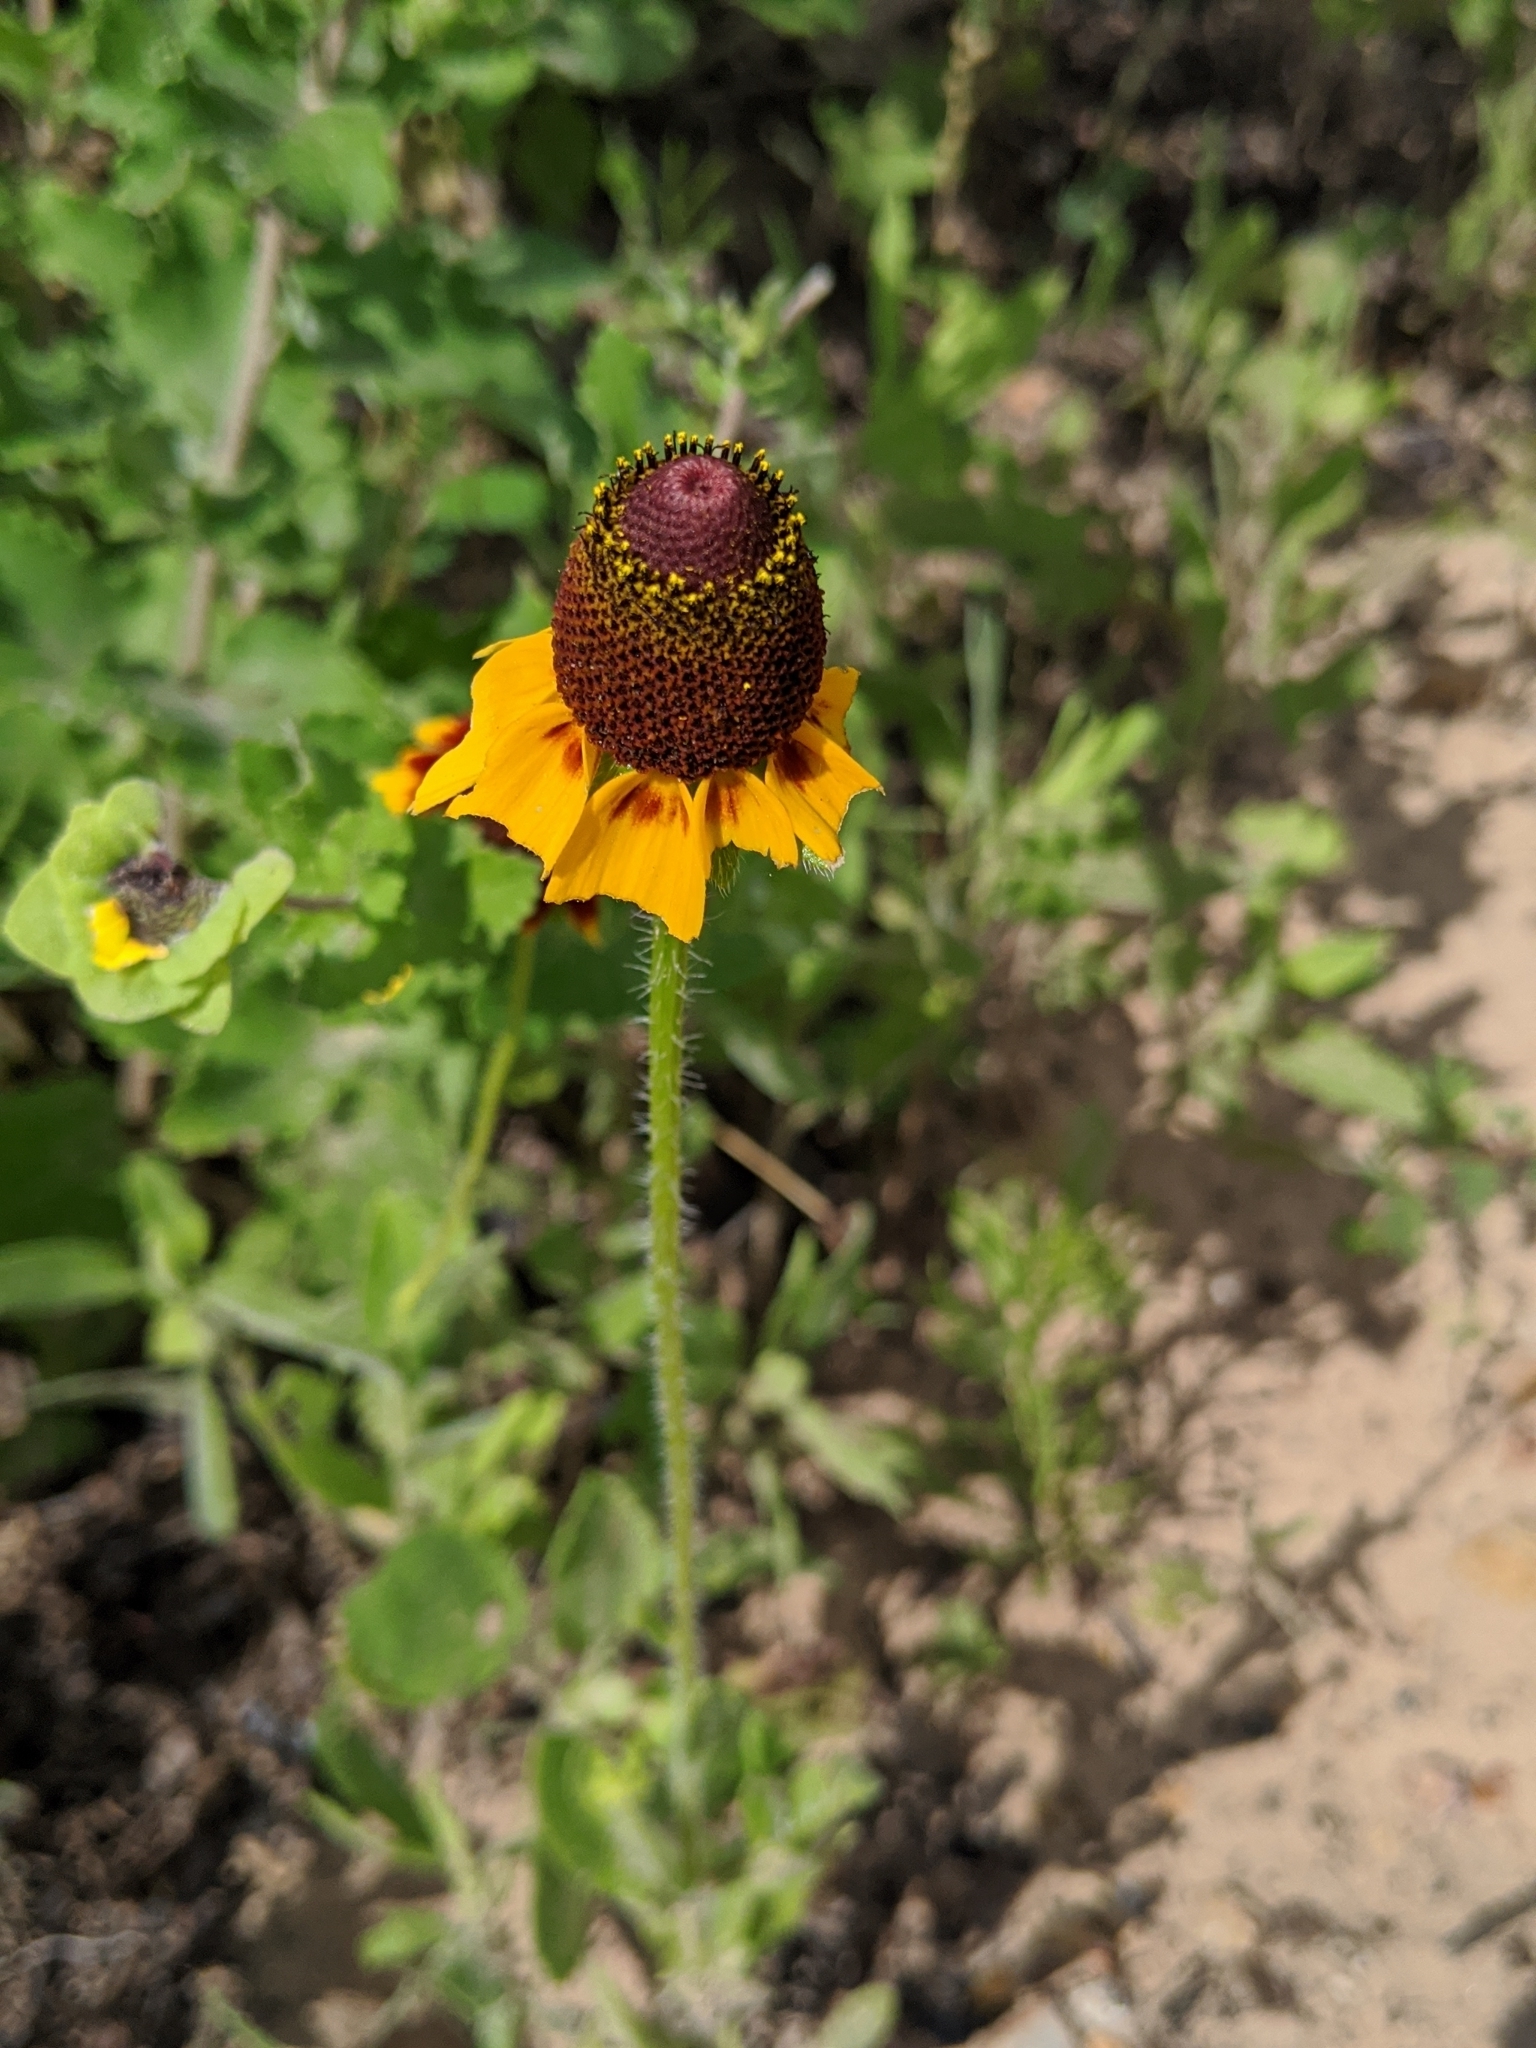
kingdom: Plantae
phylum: Tracheophyta
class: Magnoliopsida
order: Asterales
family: Asteraceae
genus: Rudbeckia
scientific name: Rudbeckia hirta
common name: Black-eyed-susan
